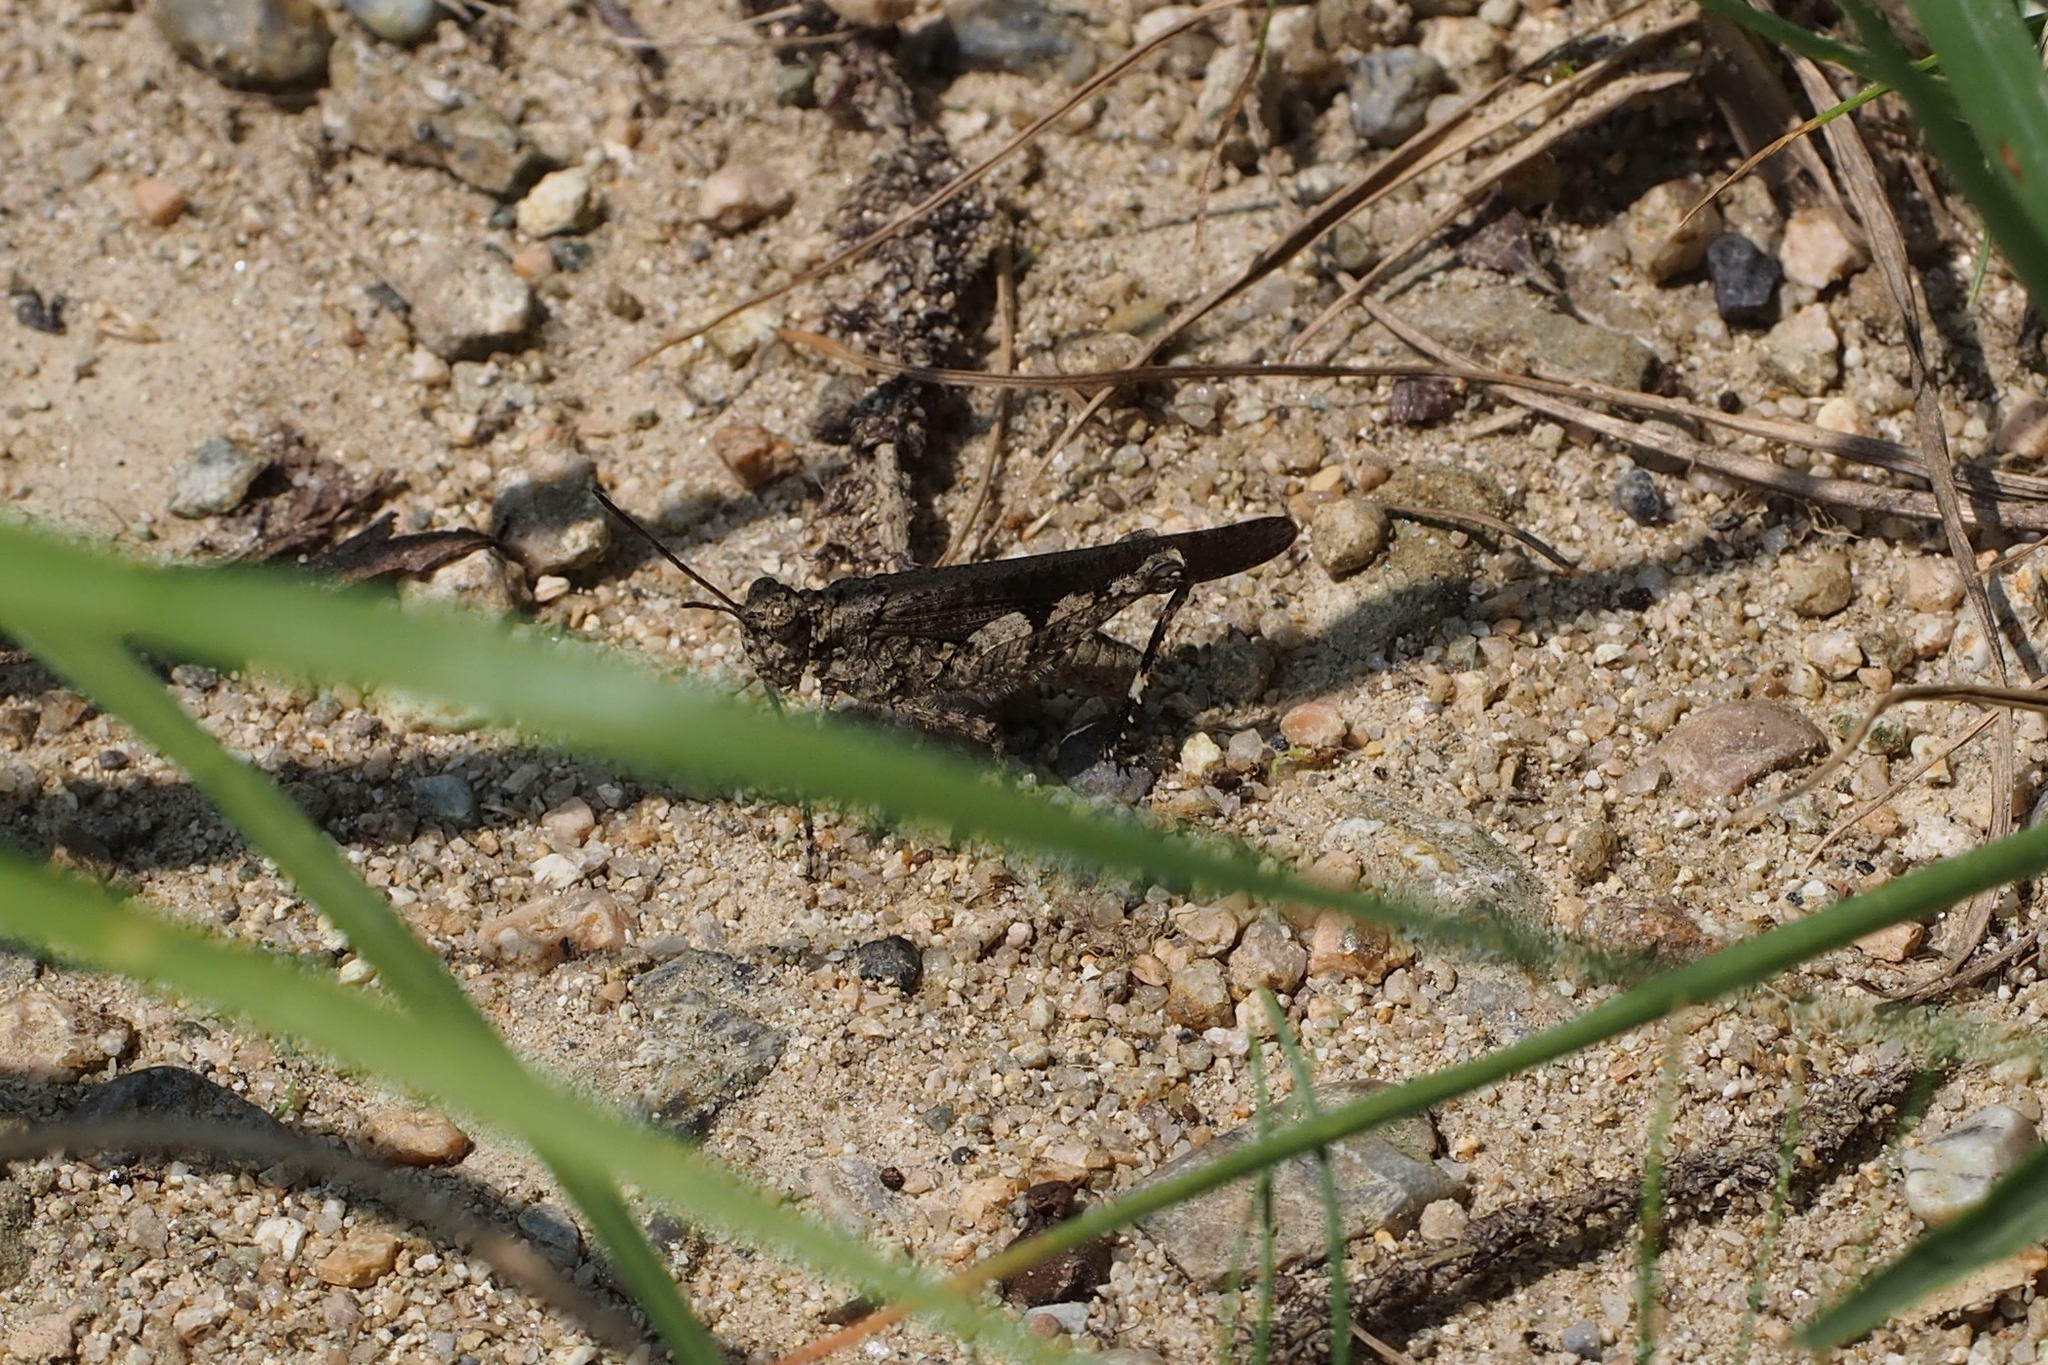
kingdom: Animalia
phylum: Arthropoda
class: Insecta
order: Orthoptera
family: Acrididae
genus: Trilophidia
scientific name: Trilophidia annulata
